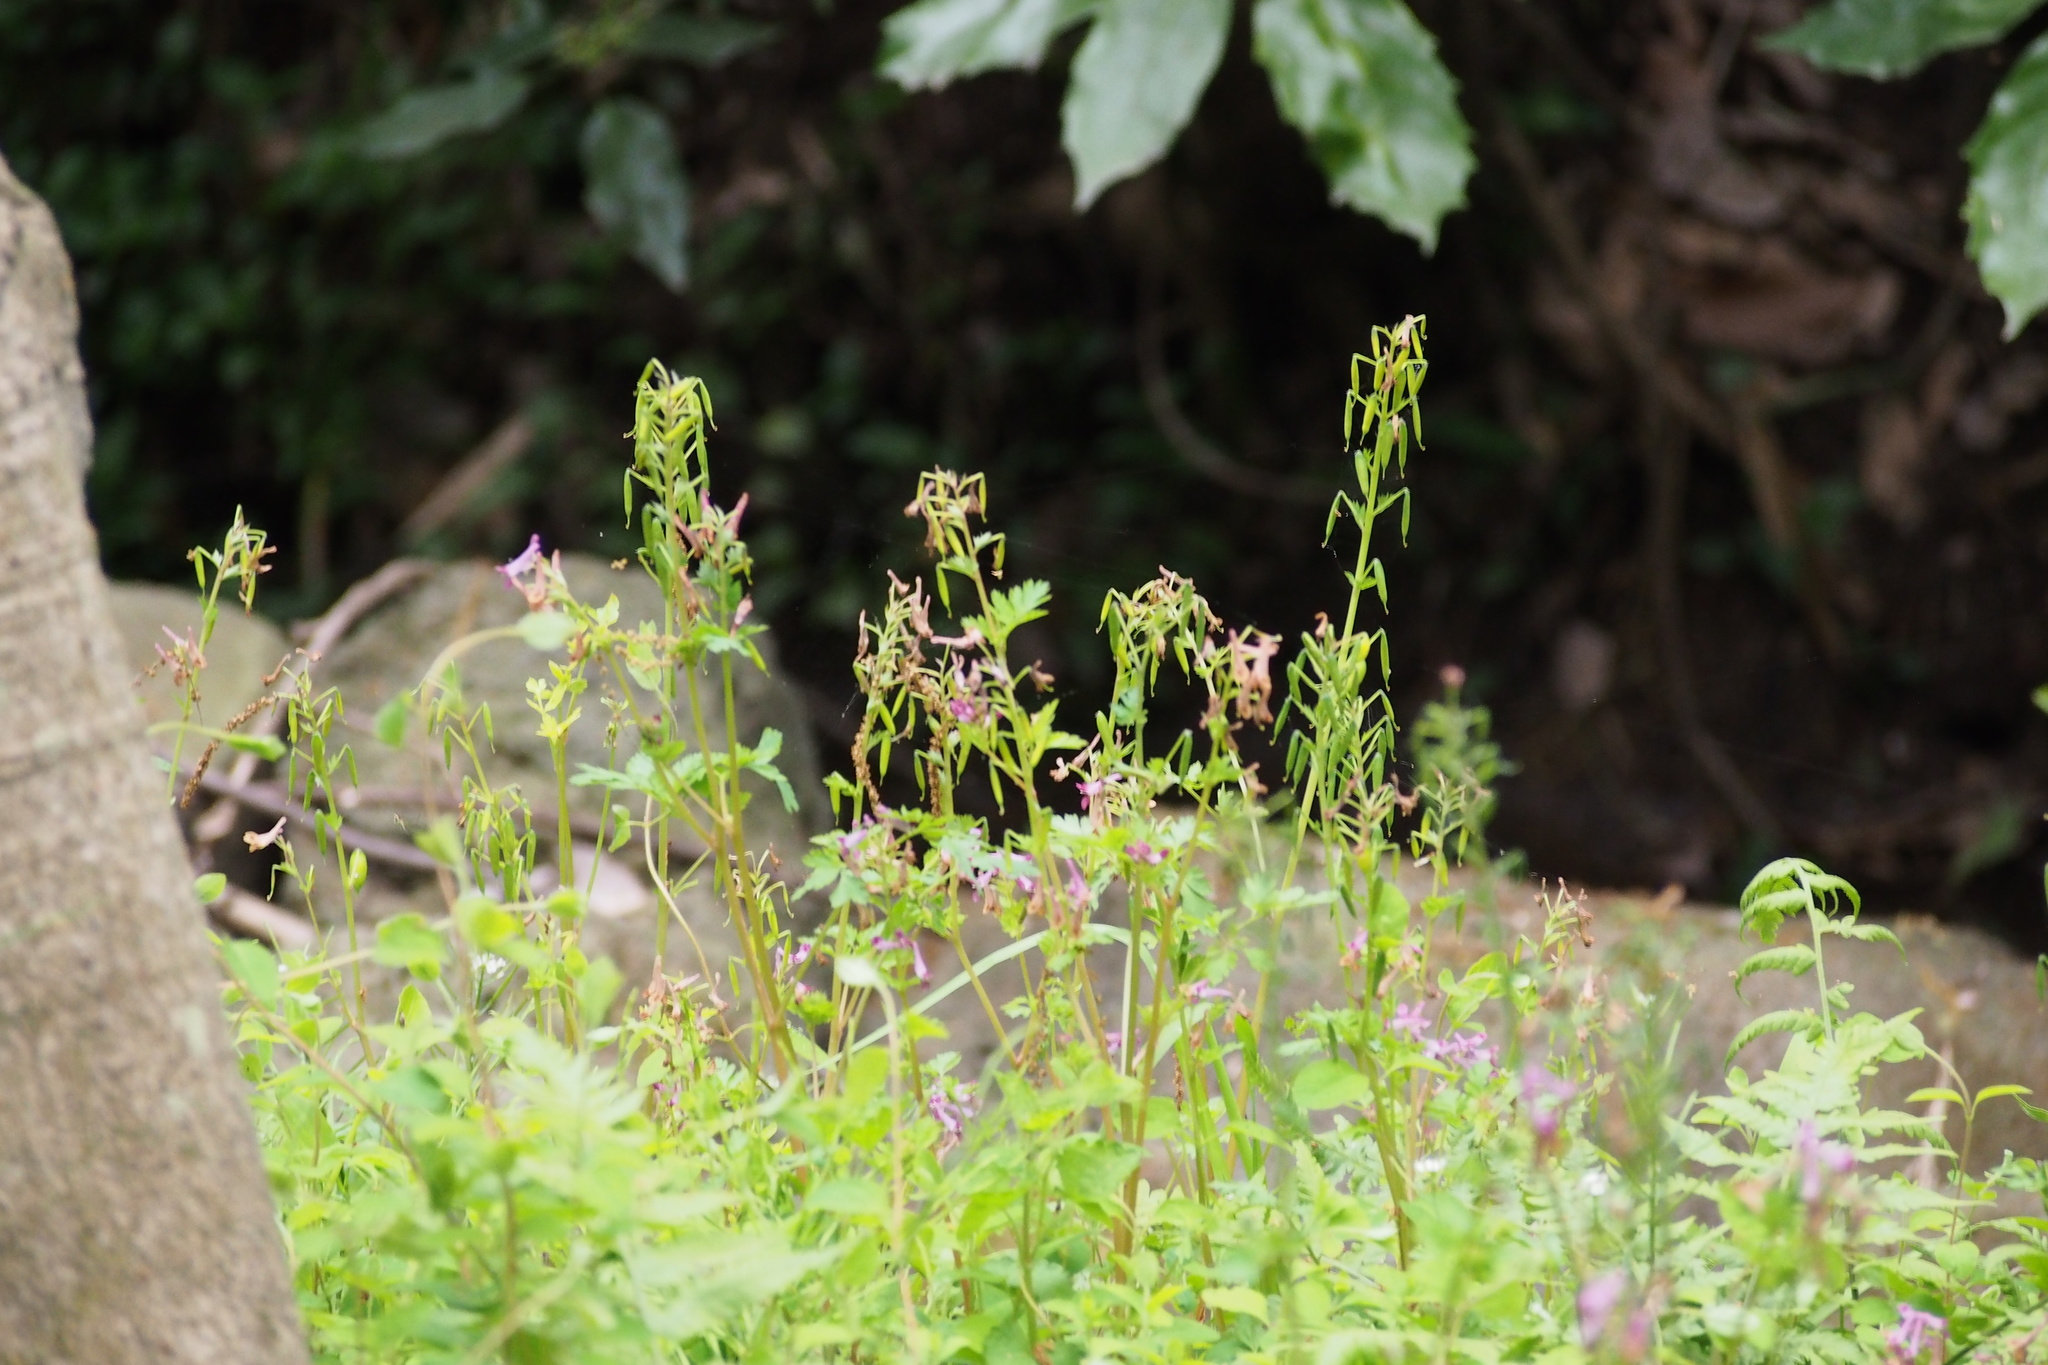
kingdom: Plantae
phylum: Tracheophyta
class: Magnoliopsida
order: Ranunculales
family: Papaveraceae
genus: Corydalis
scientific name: Corydalis incisa
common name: Incised fumewort
